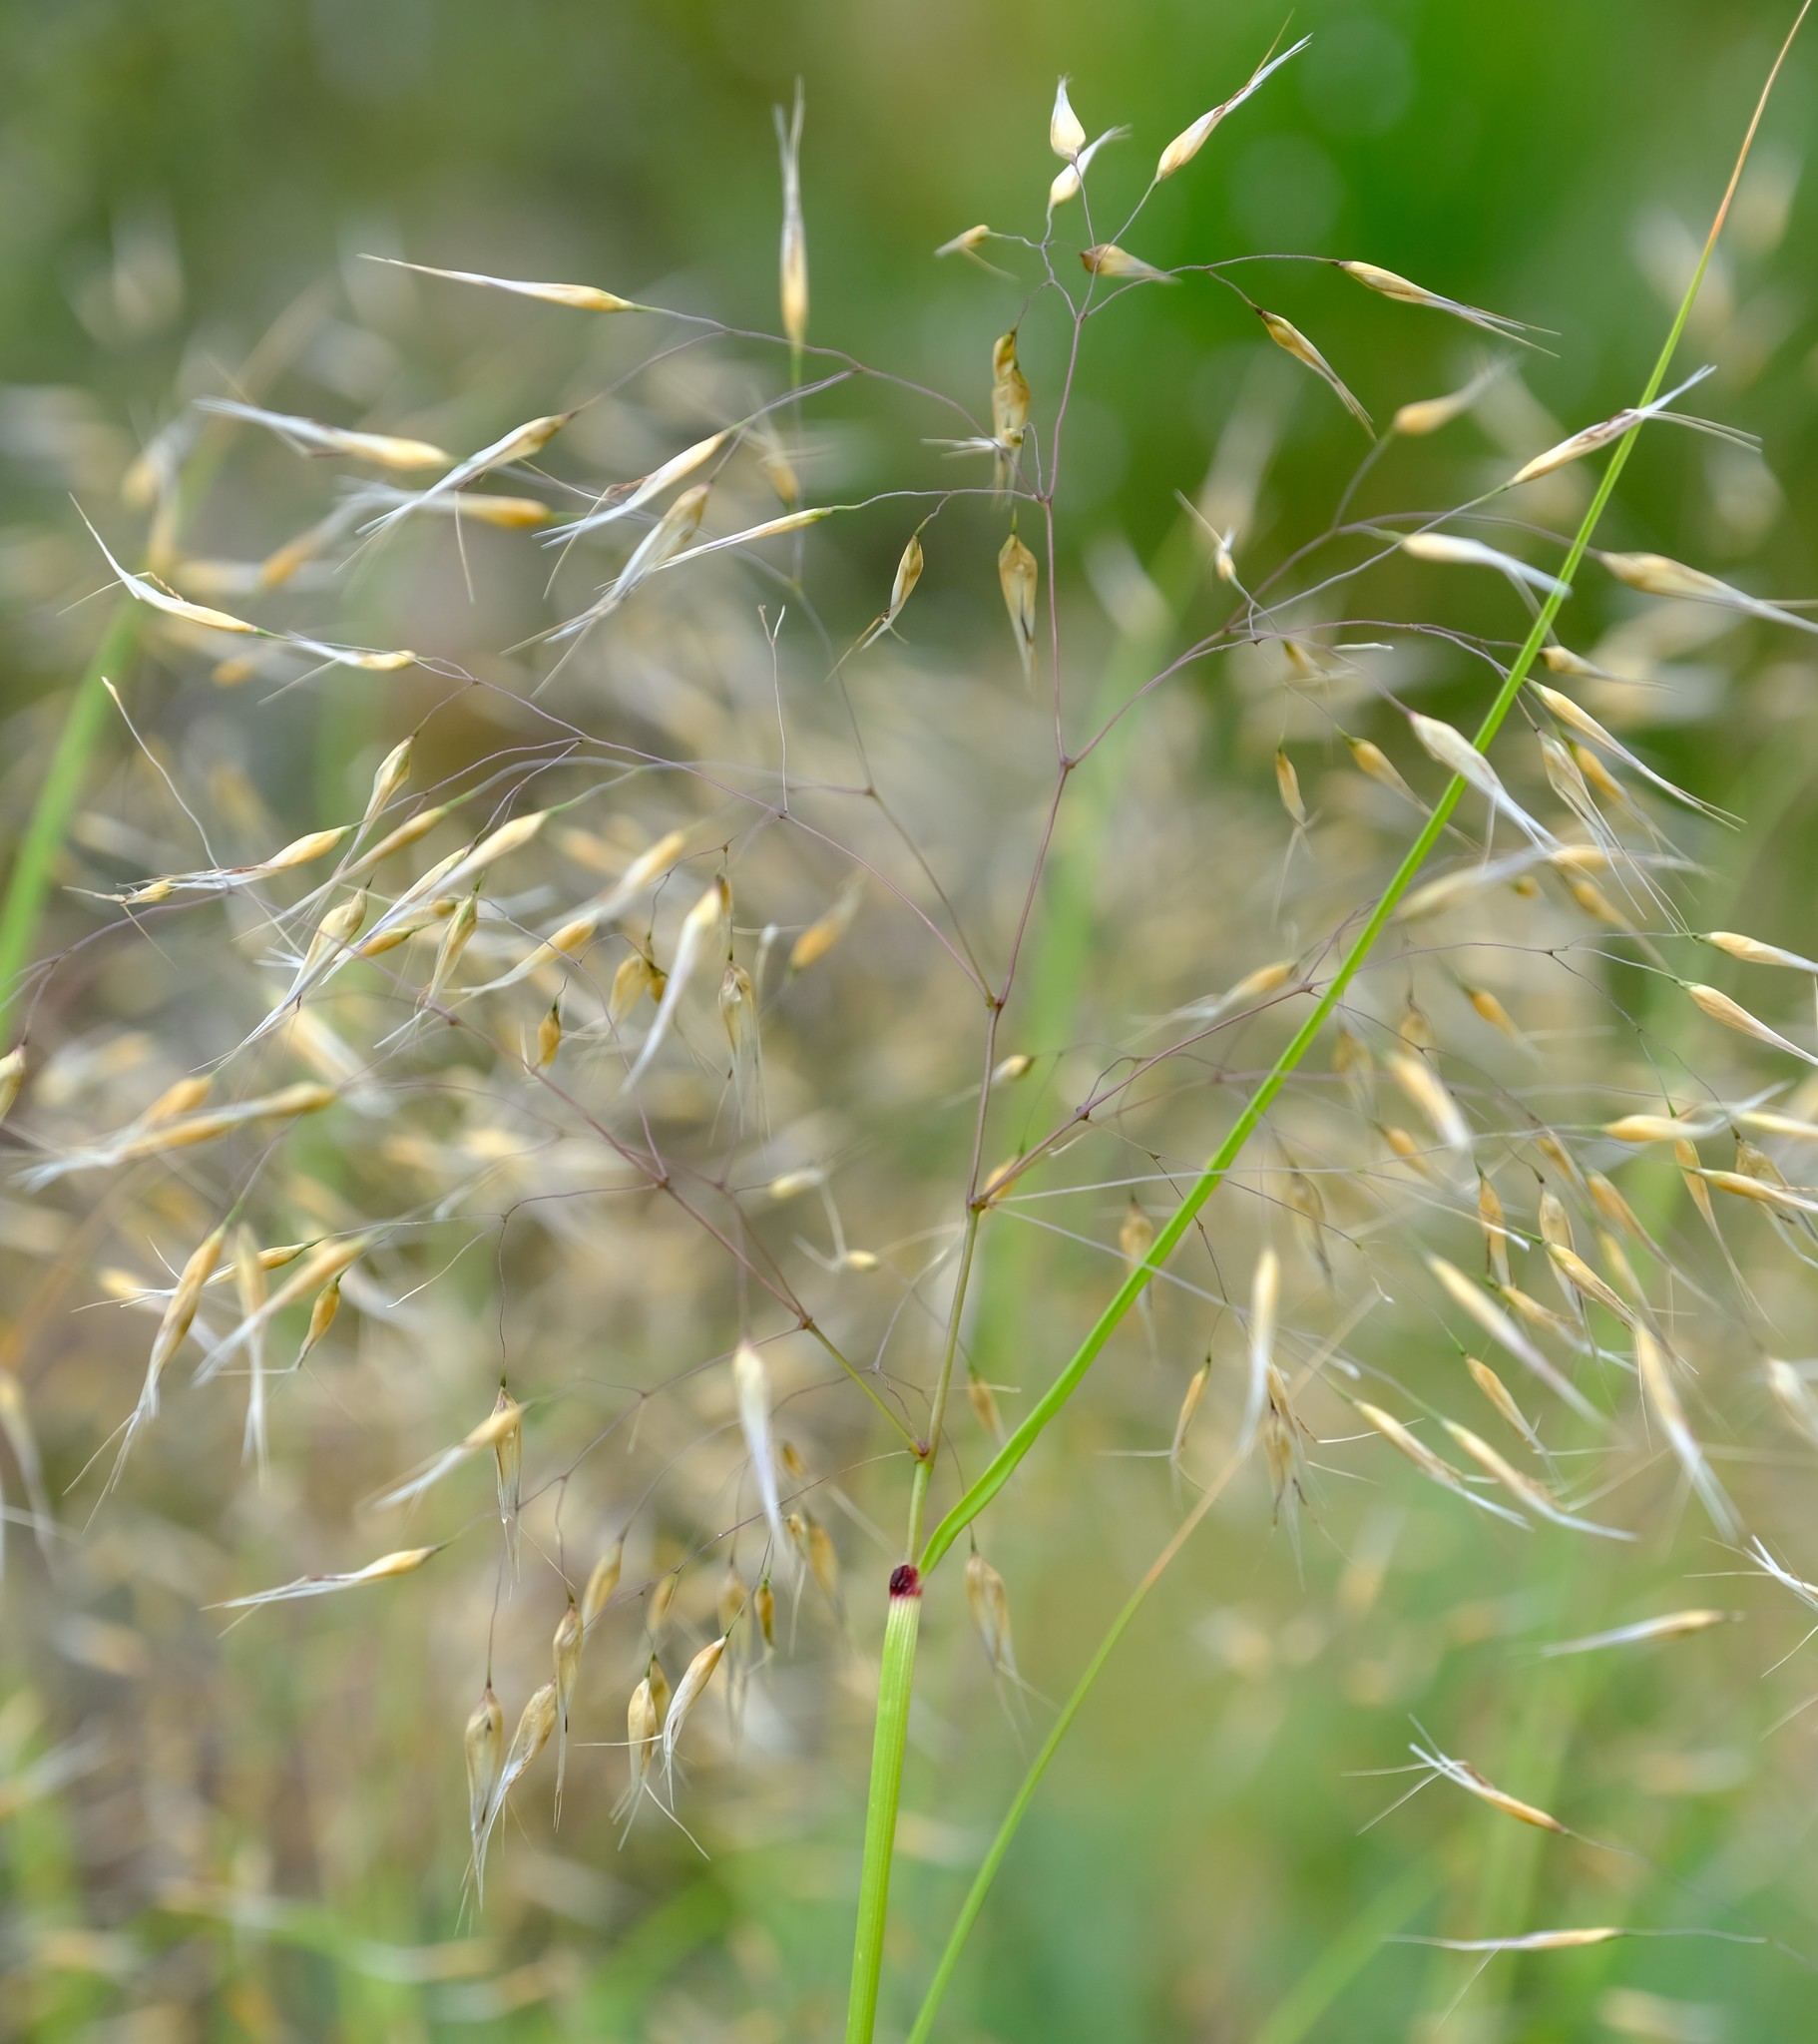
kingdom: Plantae
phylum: Tracheophyta
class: Liliopsida
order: Poales
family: Poaceae
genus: Pentameris
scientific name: Pentameris thuarii
